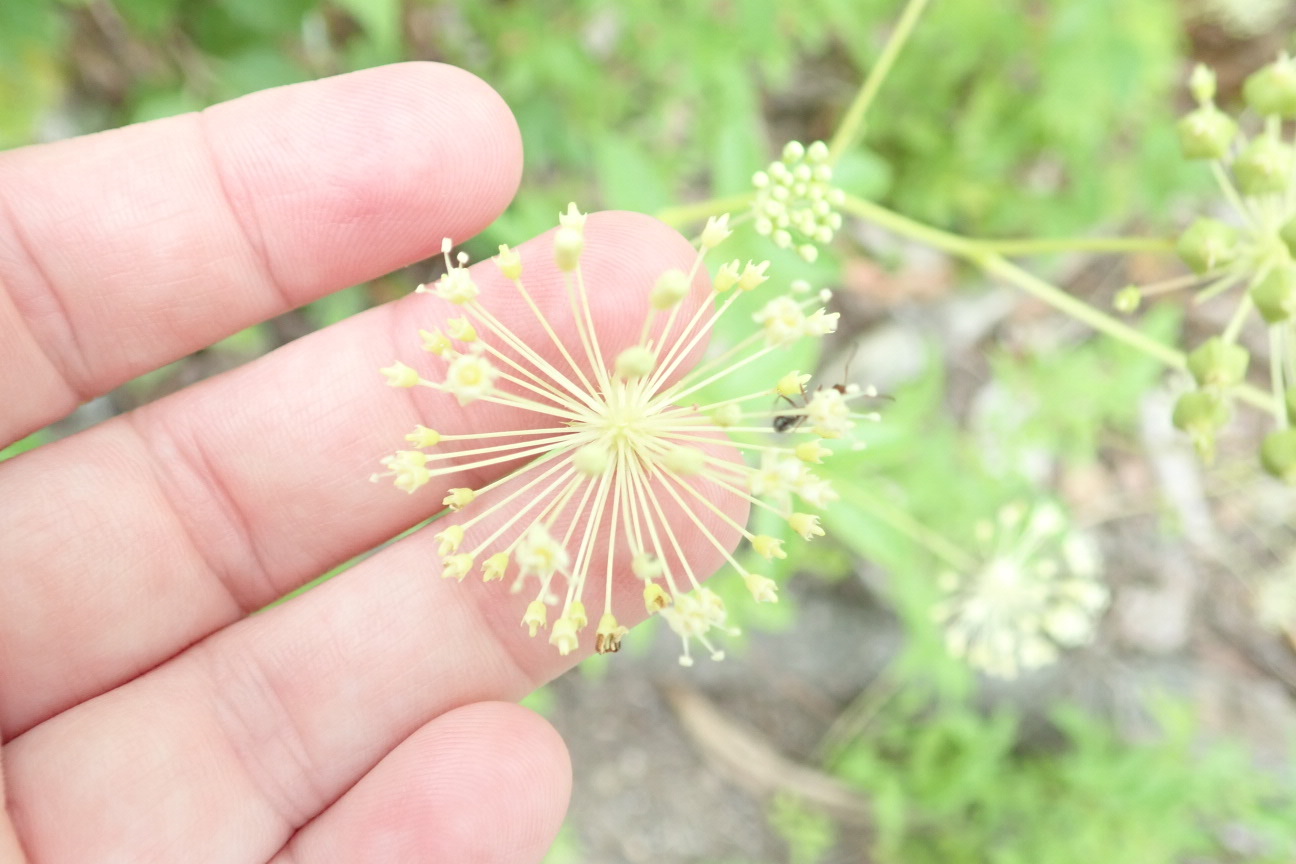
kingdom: Plantae
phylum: Tracheophyta
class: Magnoliopsida
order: Apiales
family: Araliaceae
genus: Aralia
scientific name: Aralia hispida
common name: Bristly sarsaparilla
